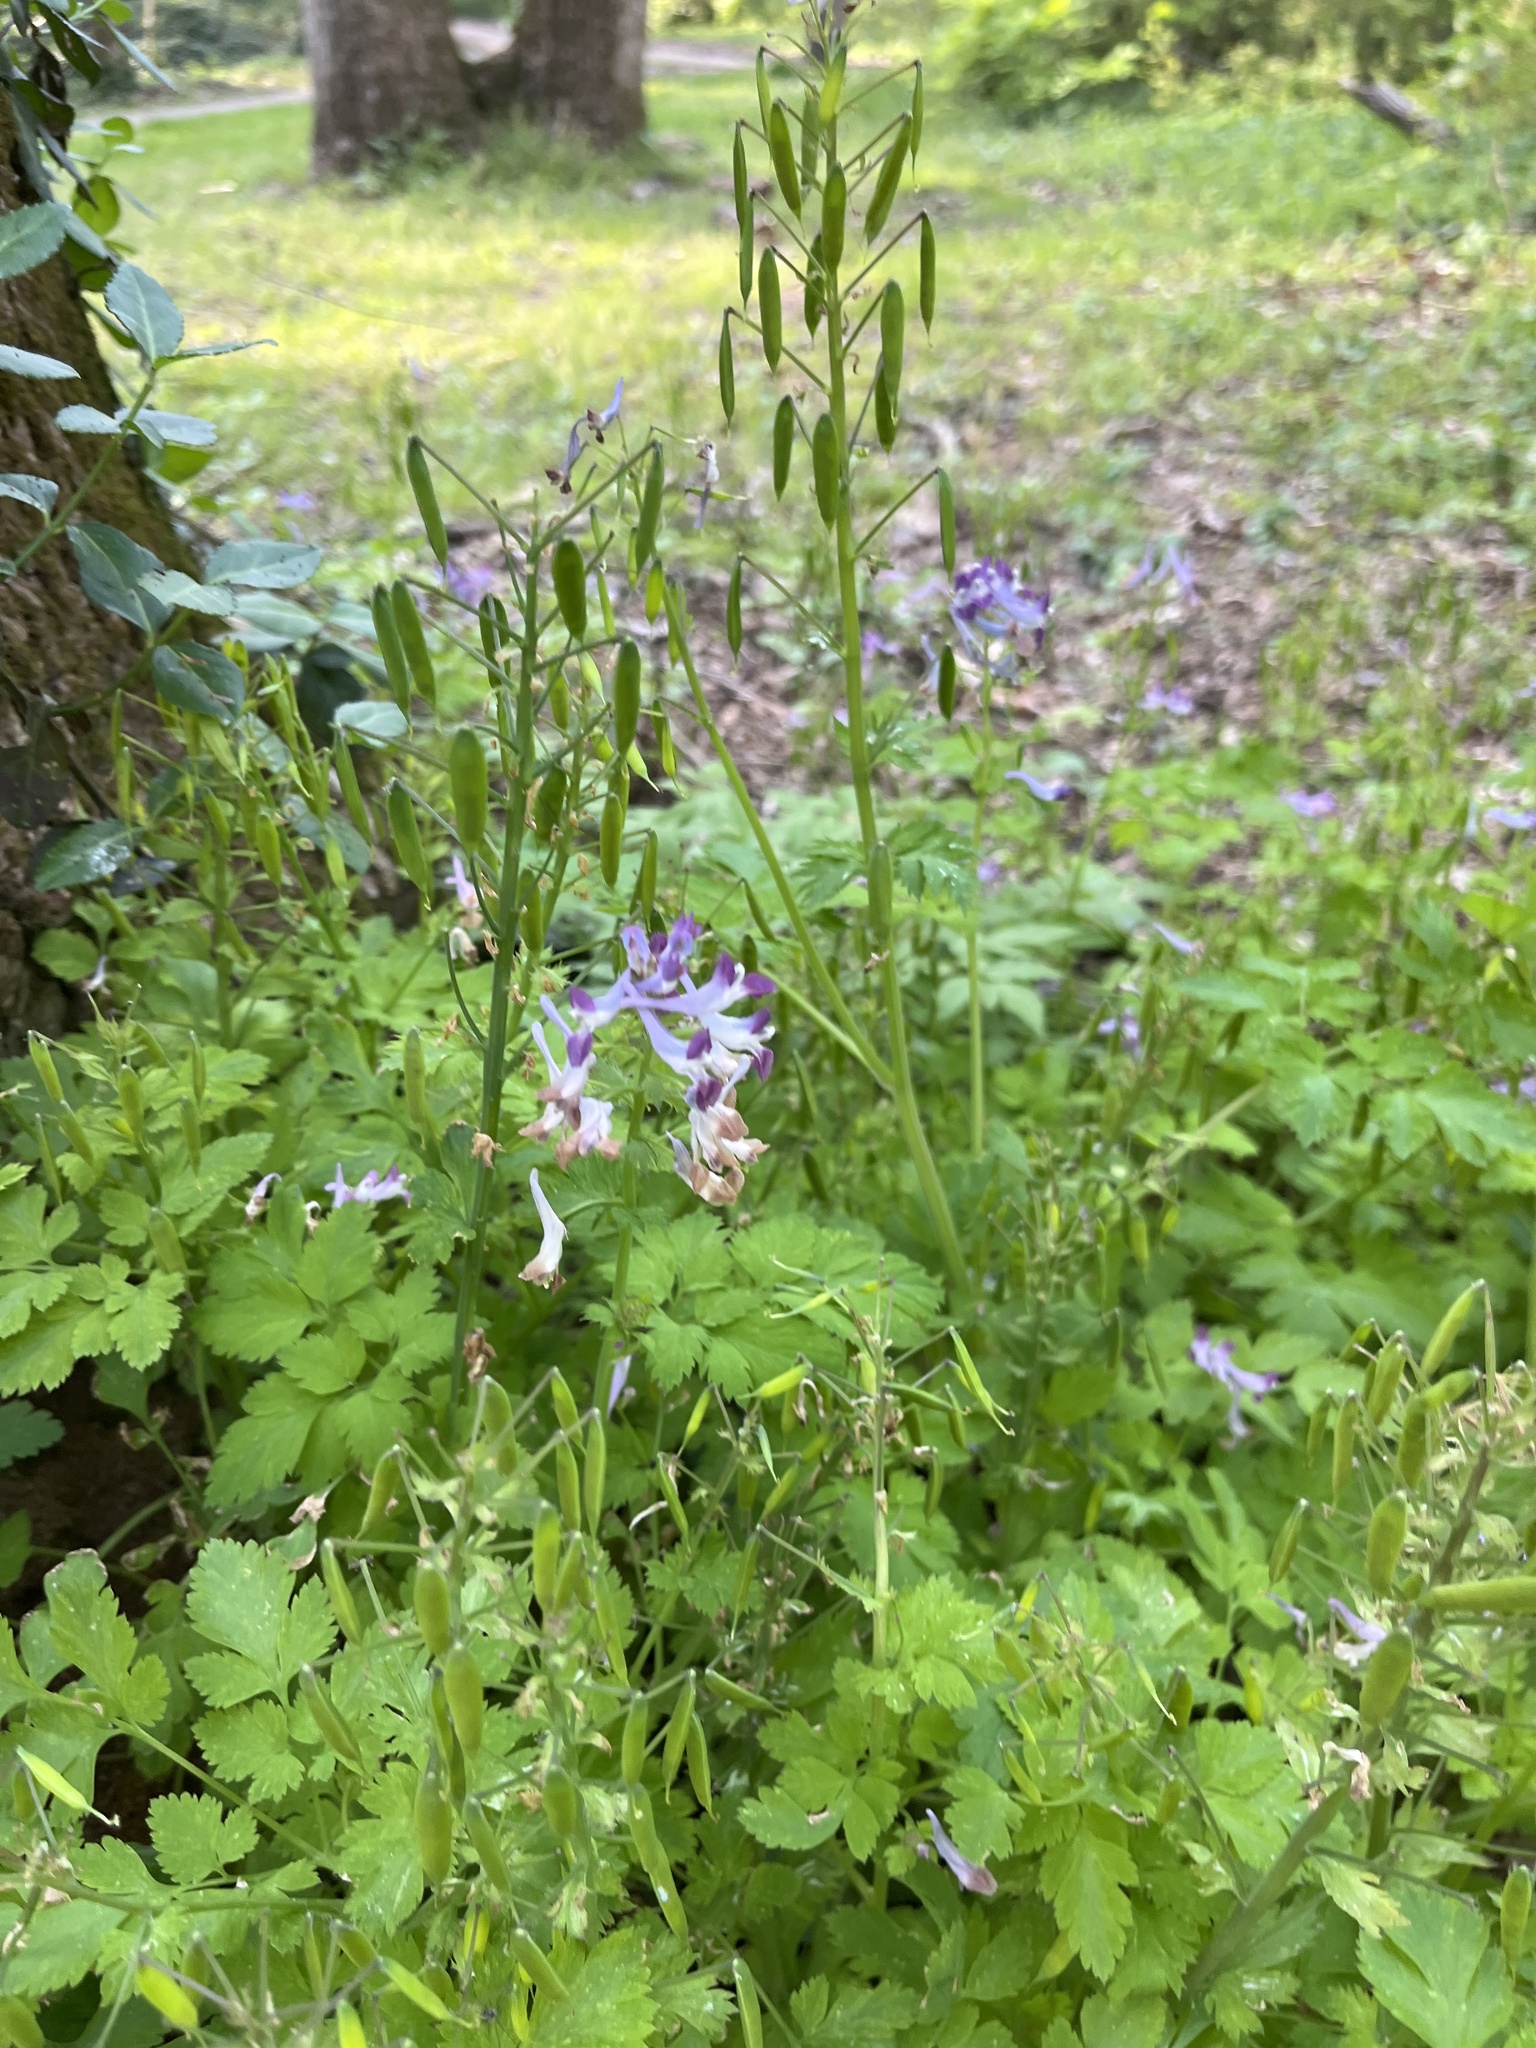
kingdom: Plantae
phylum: Tracheophyta
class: Magnoliopsida
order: Ranunculales
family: Papaveraceae
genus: Corydalis
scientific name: Corydalis incisa
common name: Incised fumewort
